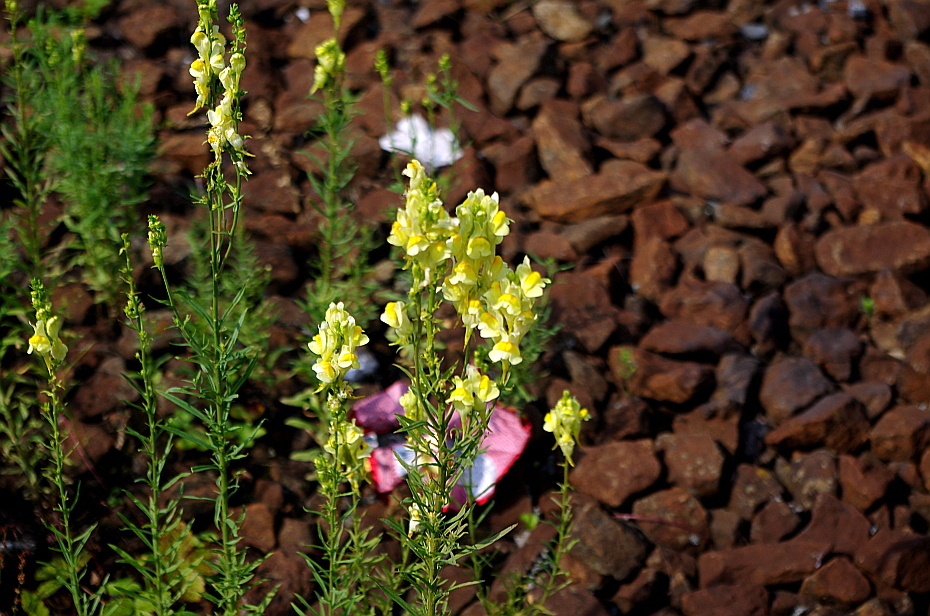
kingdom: Plantae
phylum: Tracheophyta
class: Magnoliopsida
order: Lamiales
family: Plantaginaceae
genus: Linaria
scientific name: Linaria vulgaris
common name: Butter and eggs
